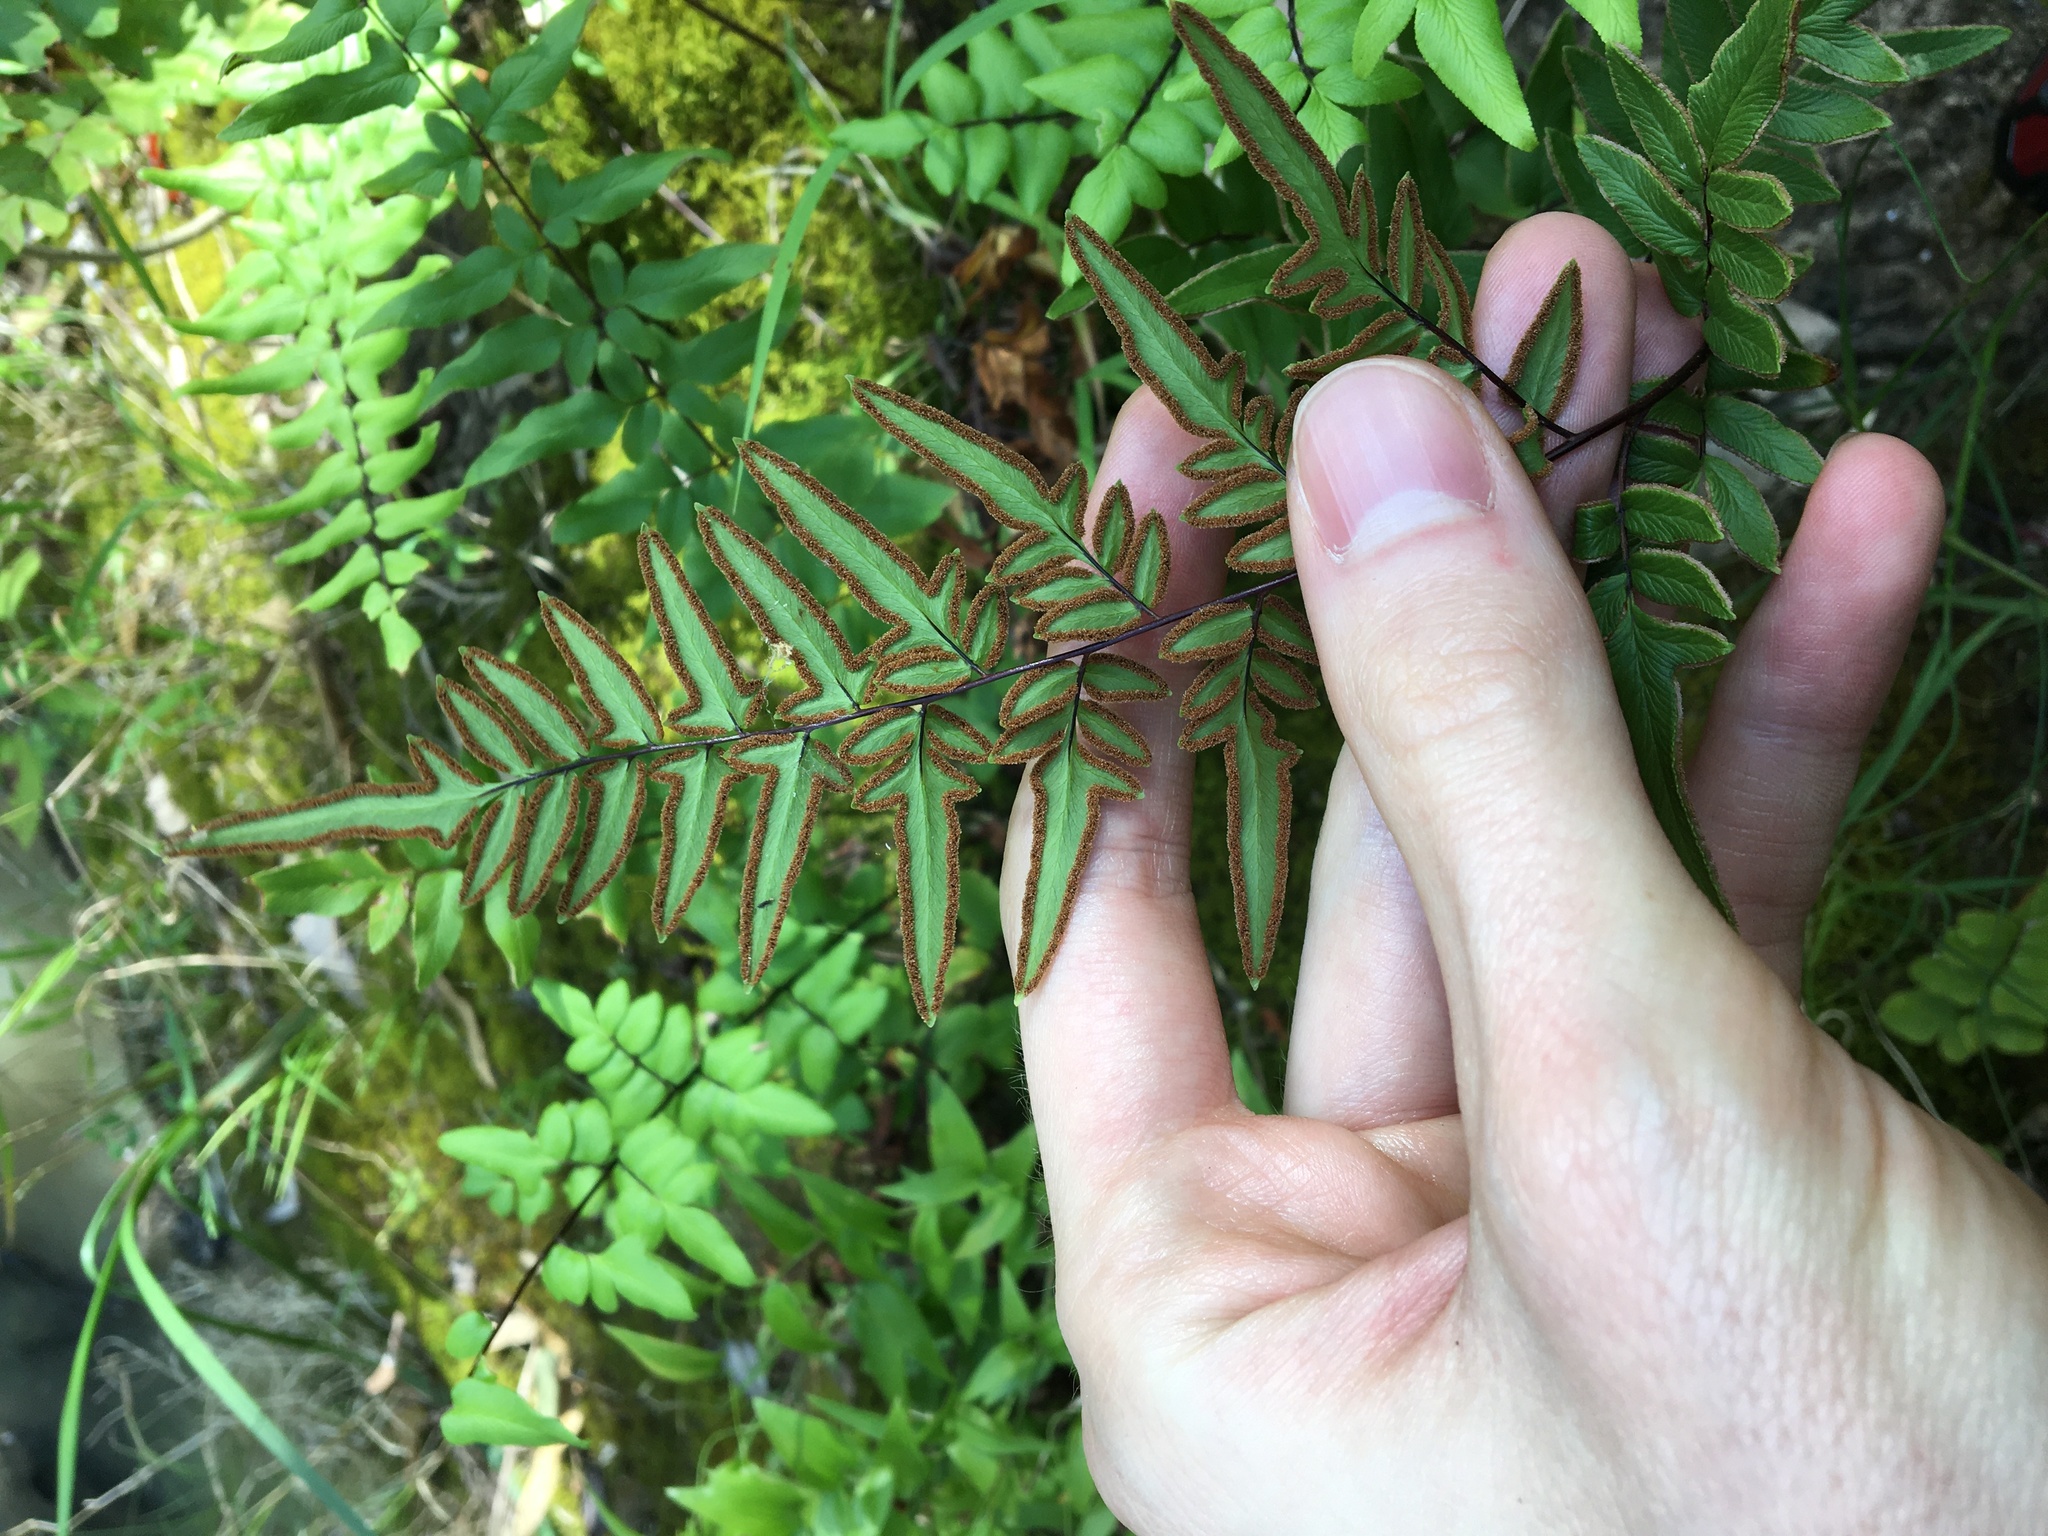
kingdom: Plantae
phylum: Tracheophyta
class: Polypodiopsida
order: Polypodiales
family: Pteridaceae
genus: Cheilanthes
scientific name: Cheilanthes viridis
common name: Green cliffbrake
